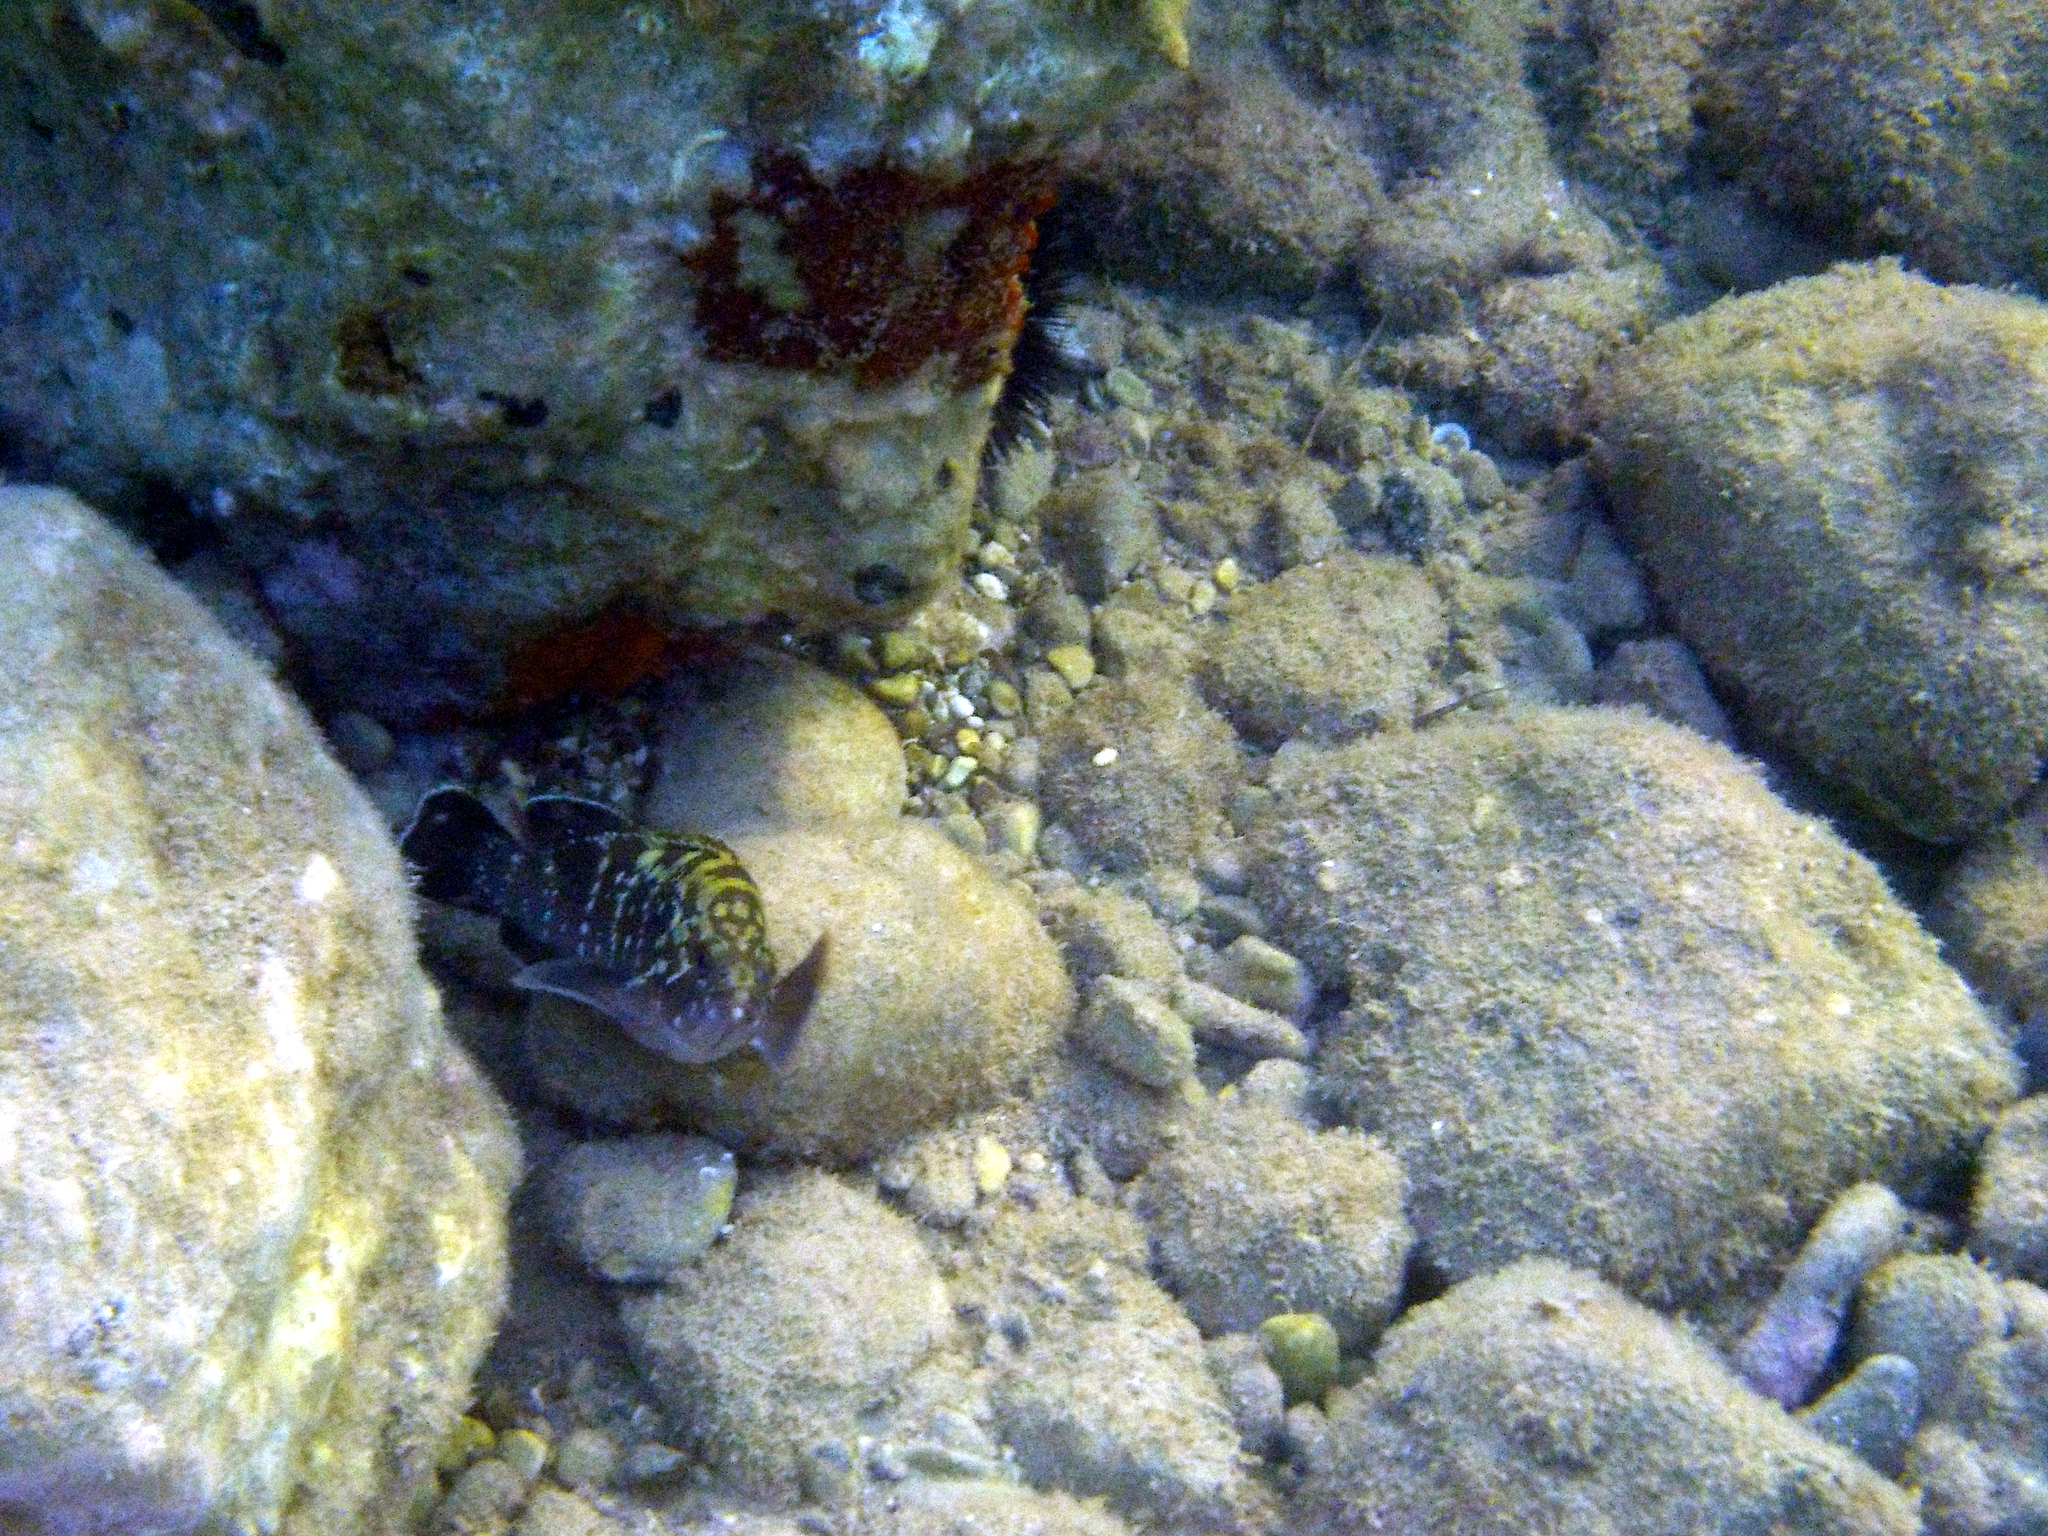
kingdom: Animalia
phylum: Chordata
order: Perciformes
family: Serranidae
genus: Epinephelus
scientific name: Epinephelus marginatus
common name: Dusky grouper
